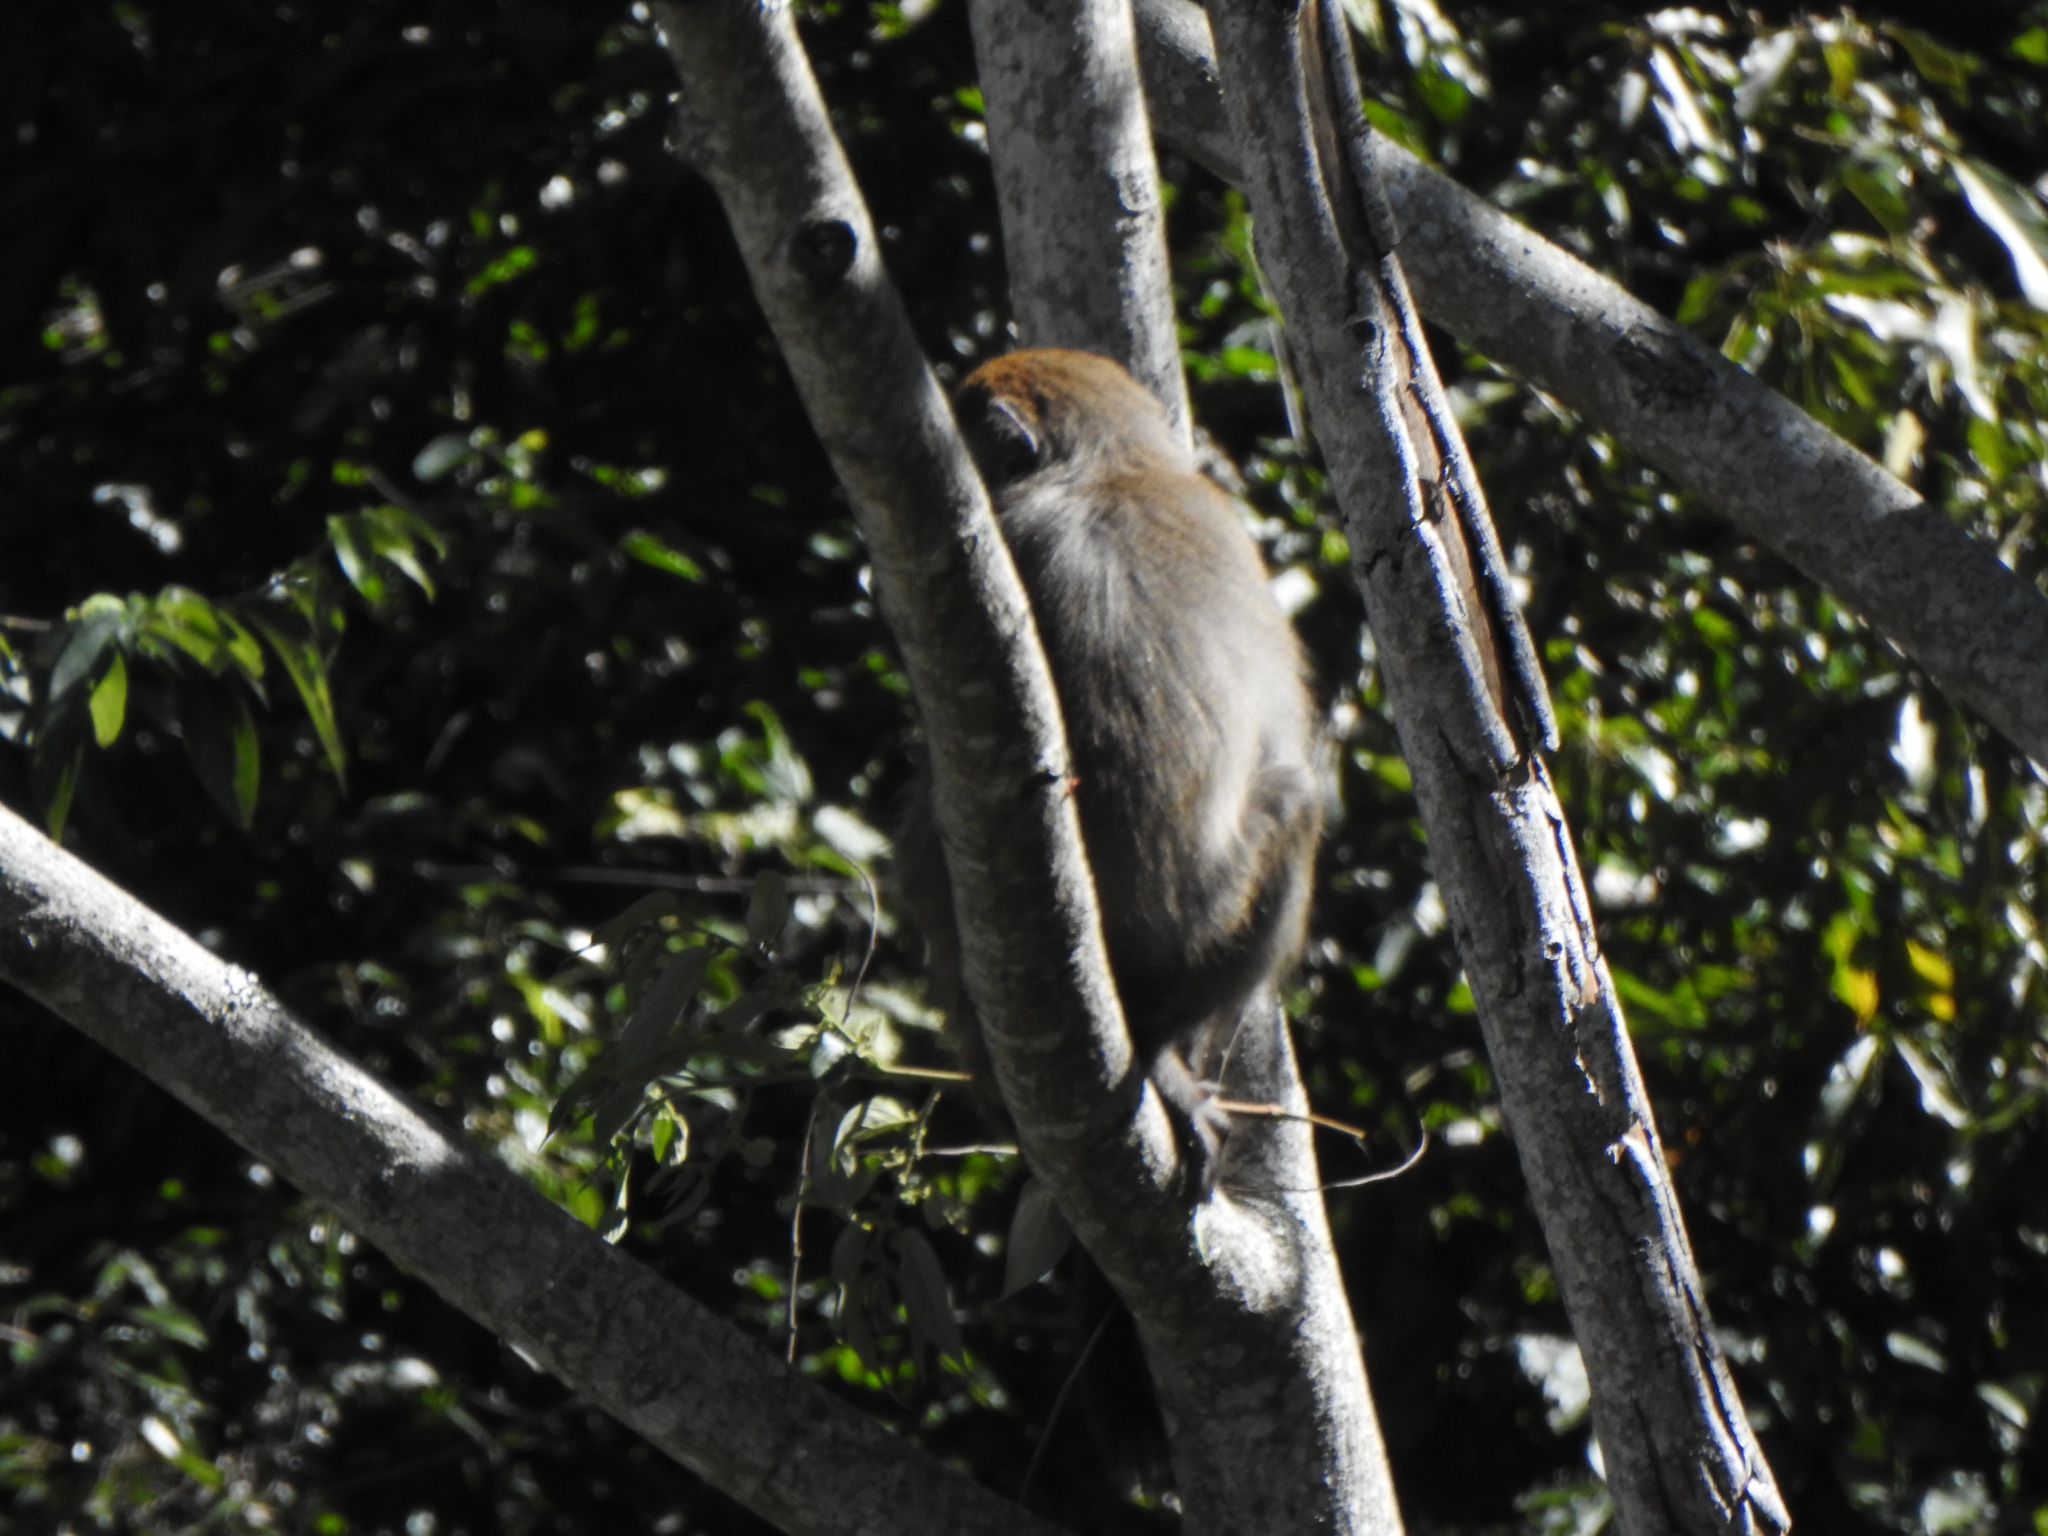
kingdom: Animalia
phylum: Chordata
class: Mammalia
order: Primates
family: Cercopithecidae
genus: Macaca
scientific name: Macaca cyclopis
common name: Formosan rock macaque
